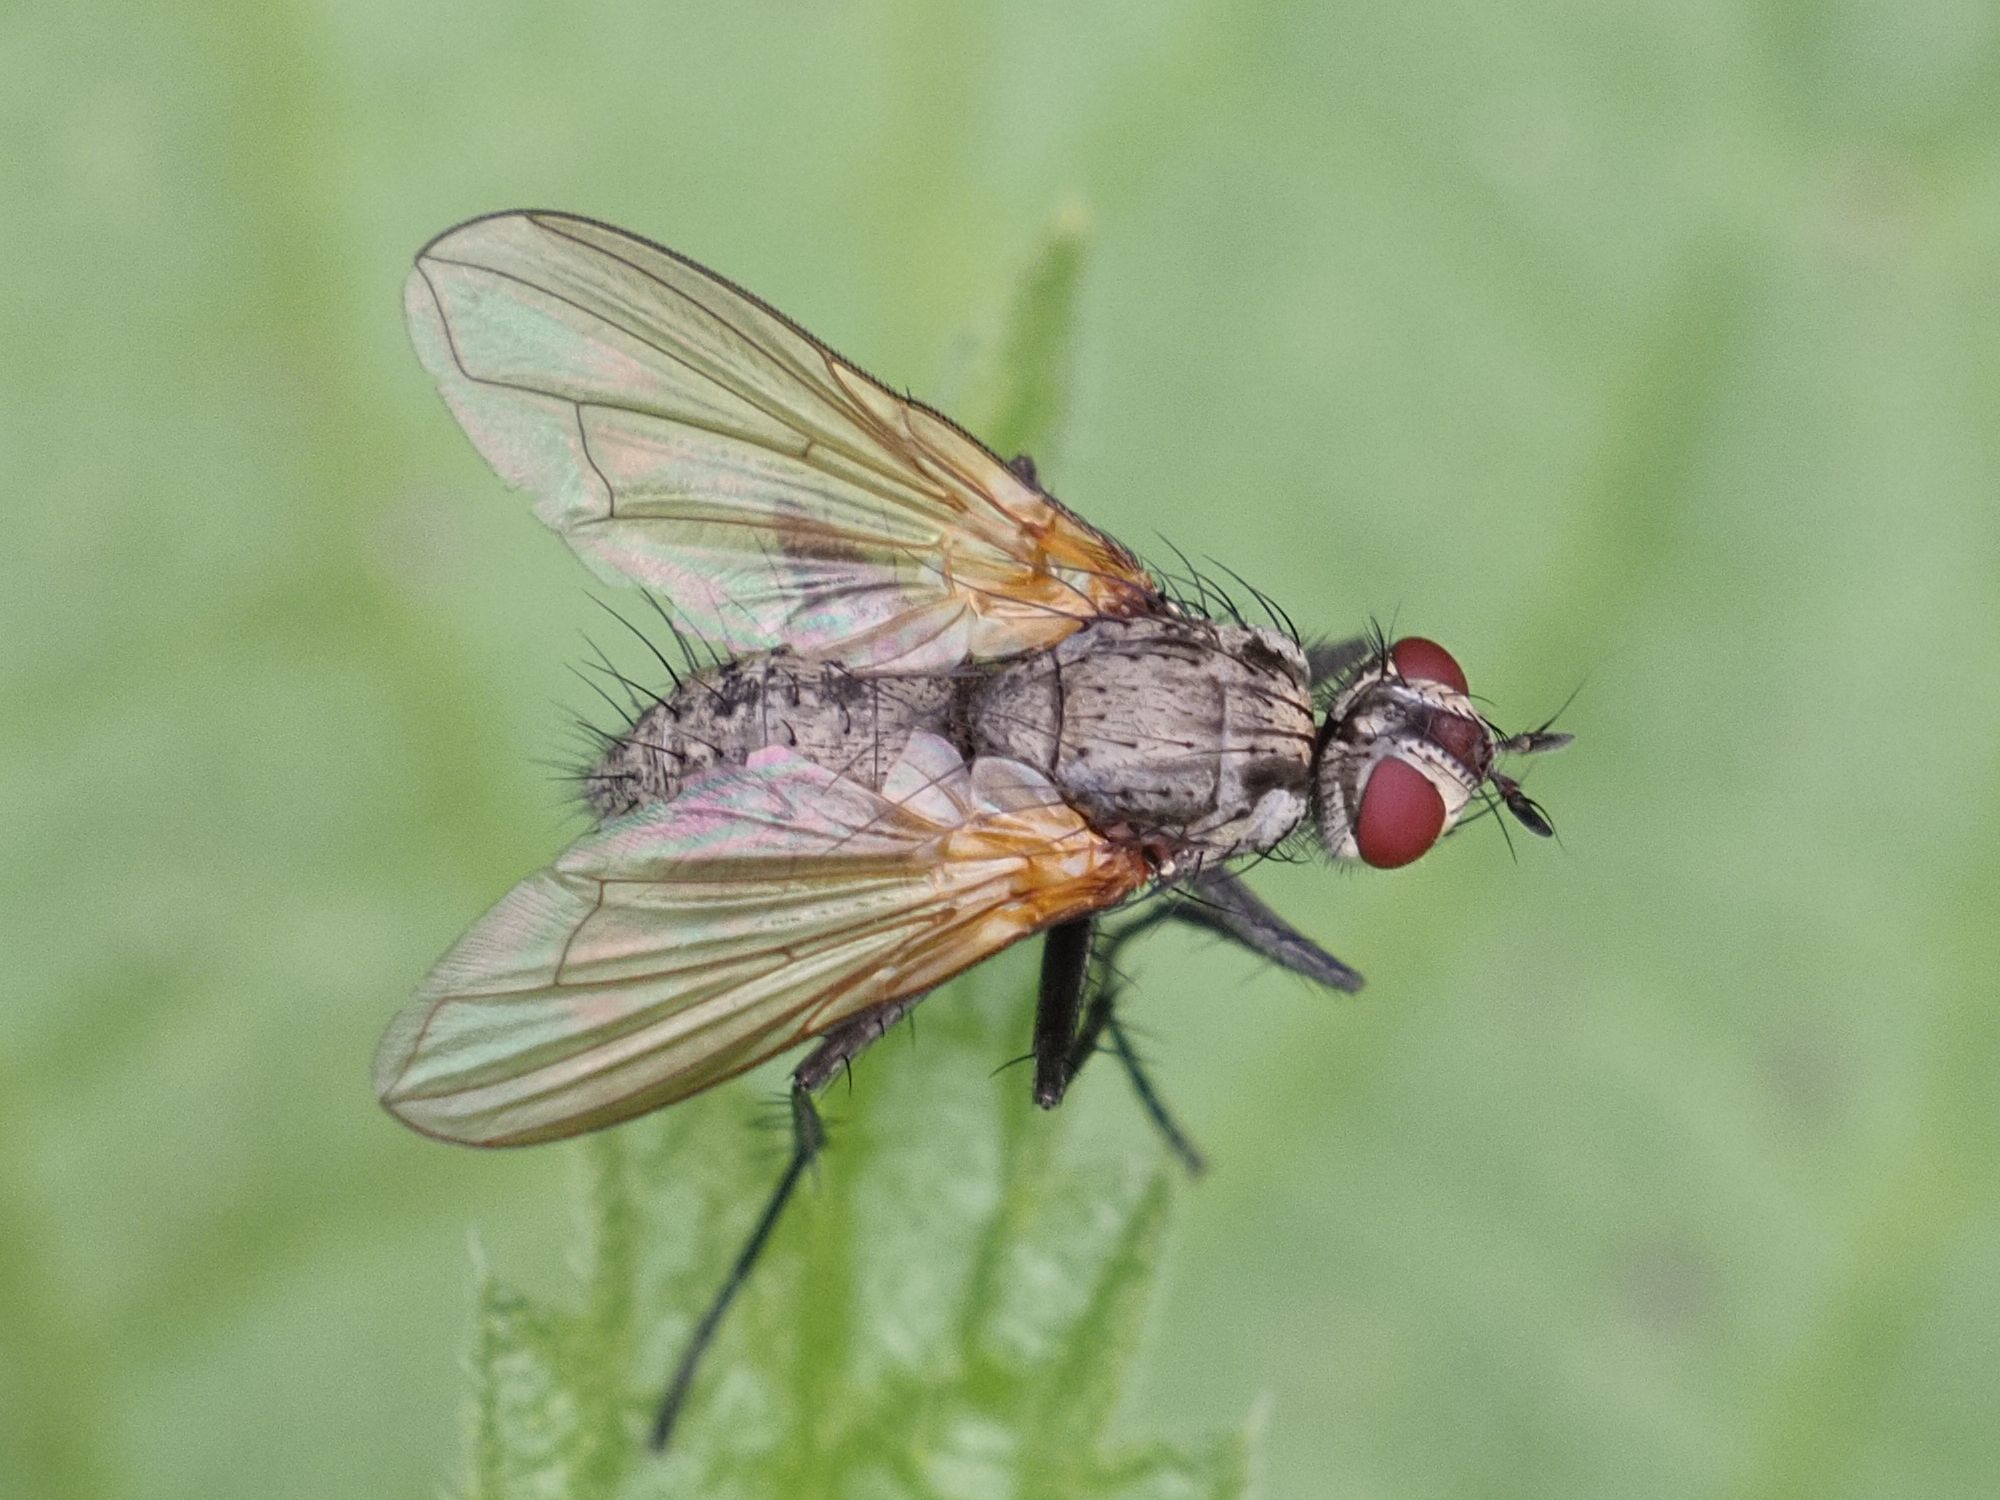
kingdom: Animalia
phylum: Arthropoda
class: Insecta
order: Diptera
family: Tachinidae
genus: Macquartia
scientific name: Macquartia grisea
